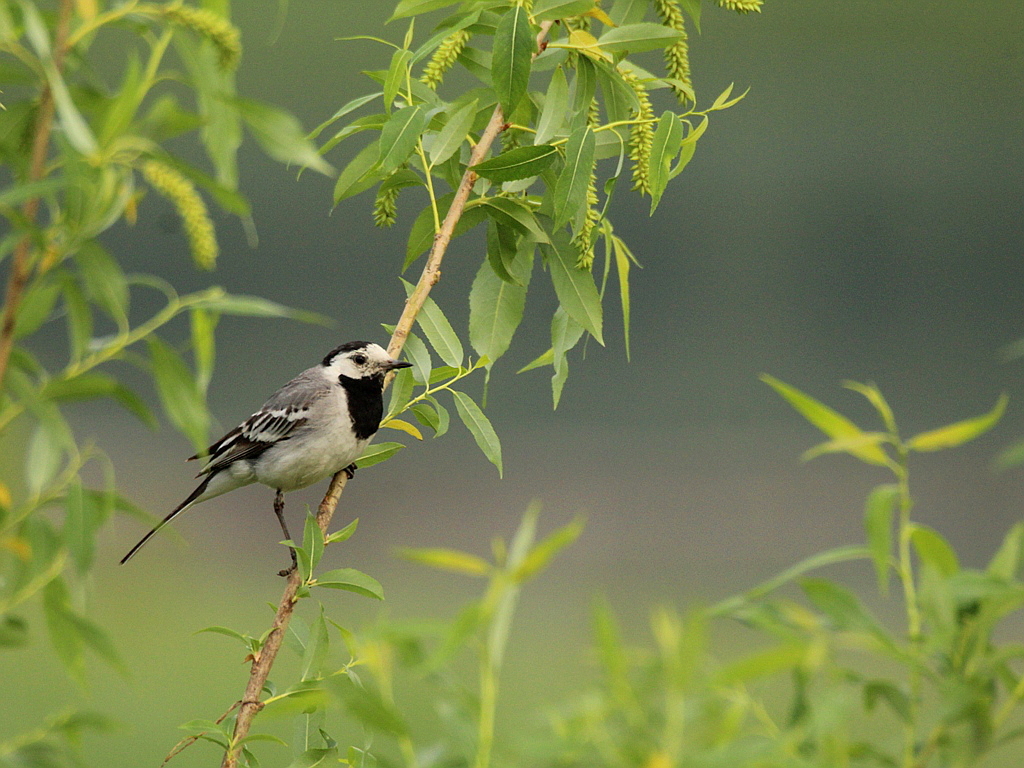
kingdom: Animalia
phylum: Chordata
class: Aves
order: Passeriformes
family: Motacillidae
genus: Motacilla
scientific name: Motacilla alba
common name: White wagtail
